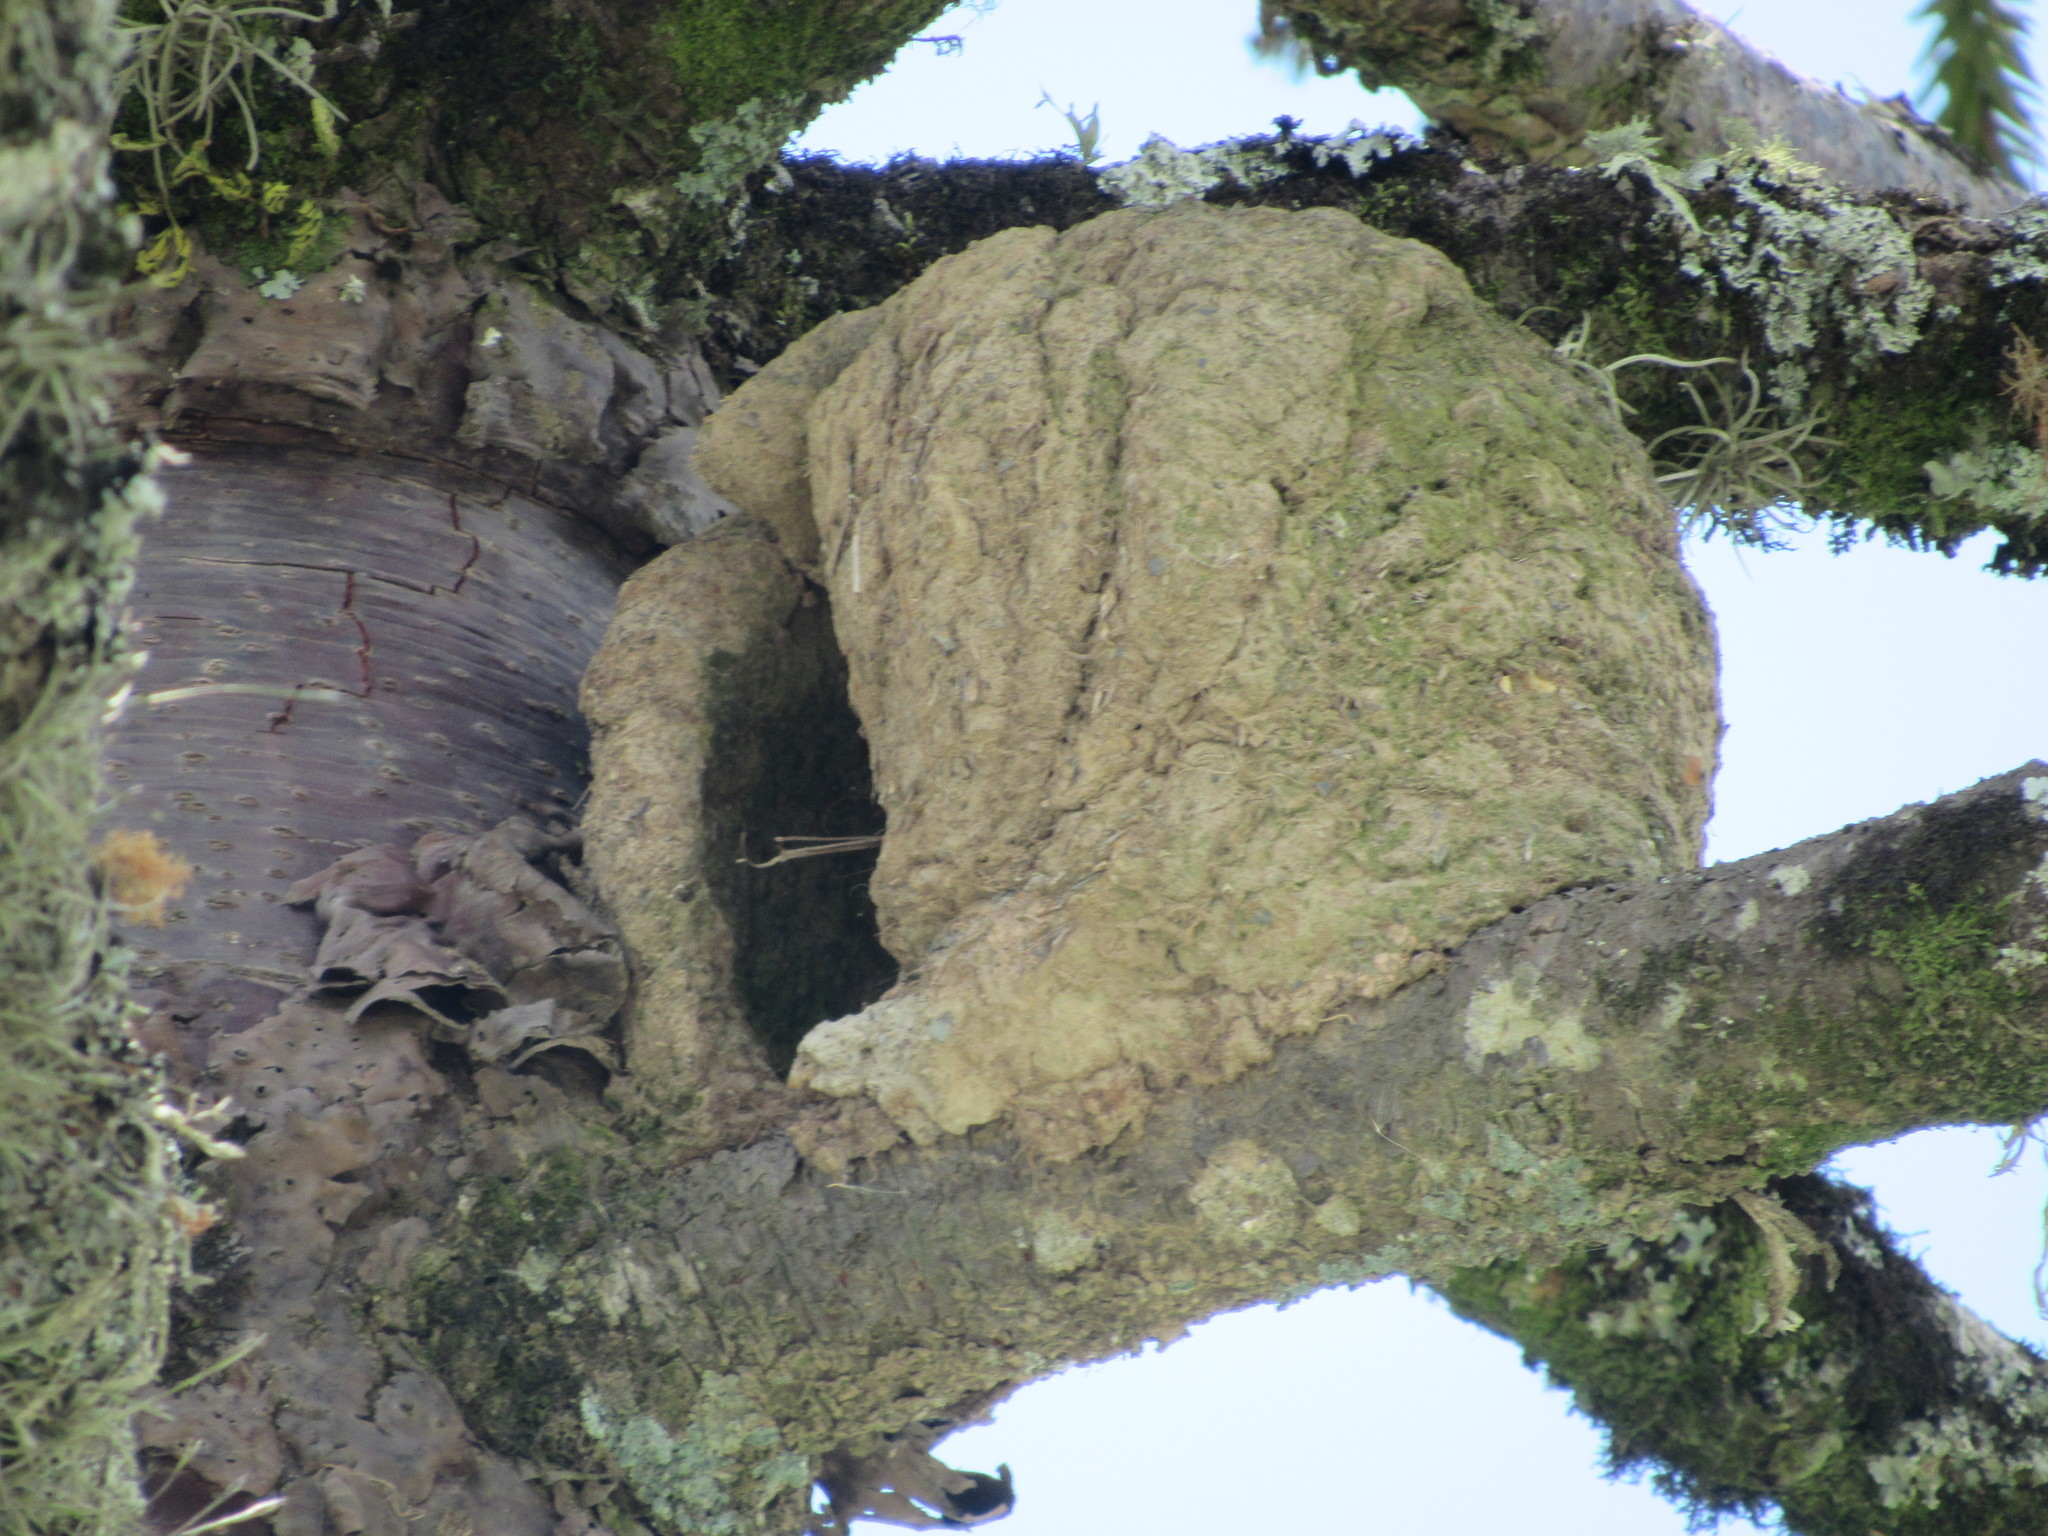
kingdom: Animalia
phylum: Chordata
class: Aves
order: Passeriformes
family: Furnariidae
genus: Furnarius
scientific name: Furnarius rufus
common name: Rufous hornero
